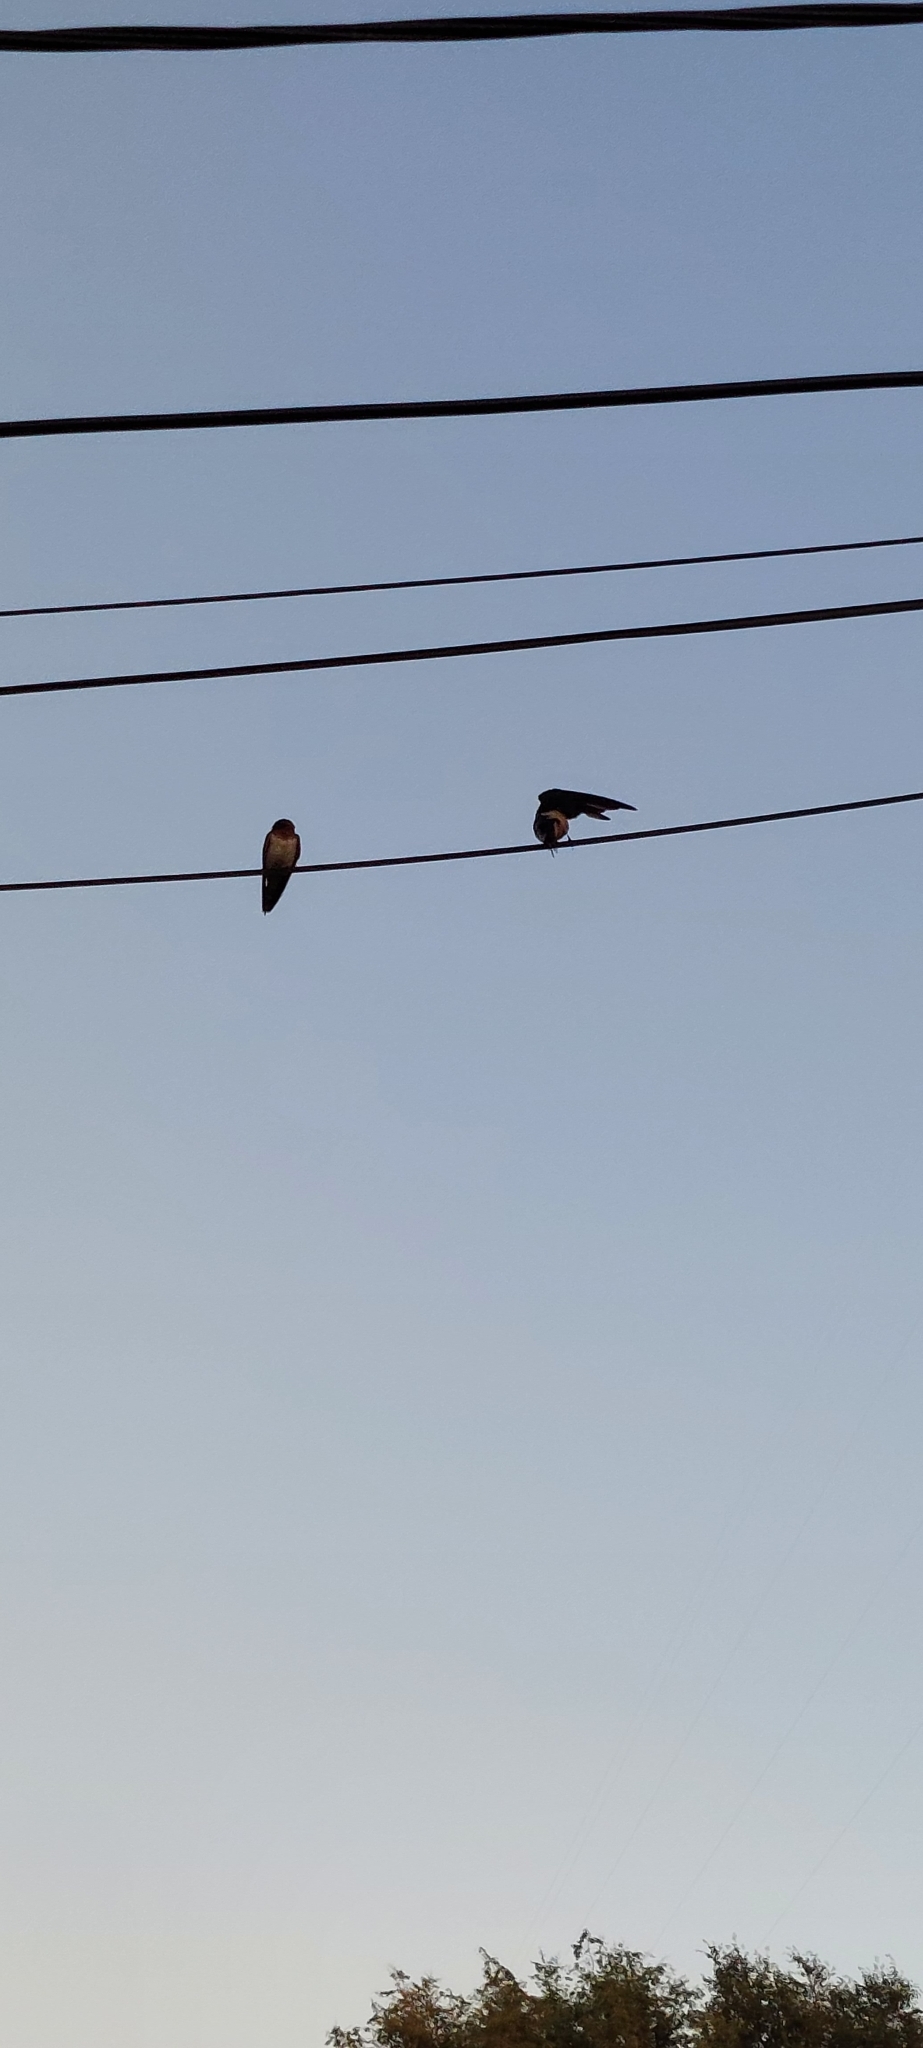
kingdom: Animalia
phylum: Chordata
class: Aves
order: Passeriformes
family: Hirundinidae
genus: Hirundo
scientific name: Hirundo rustica
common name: Barn swallow
